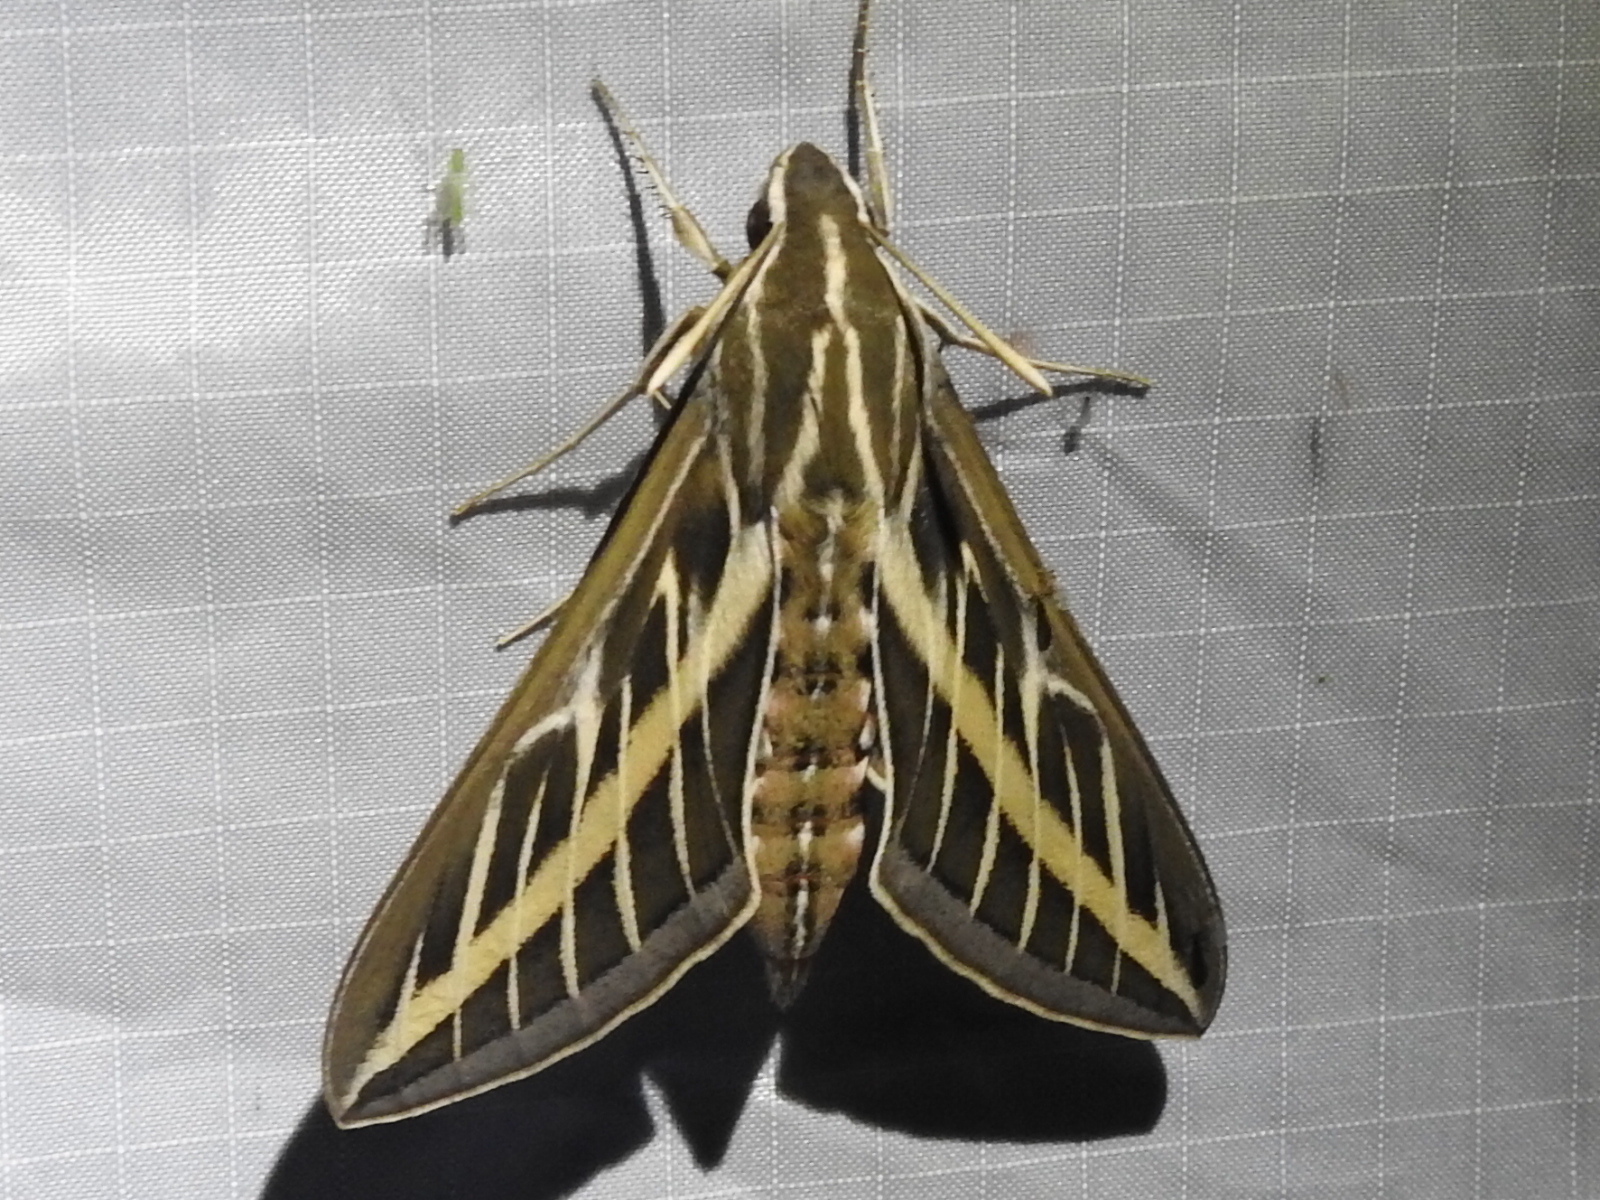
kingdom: Animalia
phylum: Arthropoda
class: Insecta
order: Lepidoptera
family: Sphingidae
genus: Hyles
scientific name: Hyles lineata
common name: White-lined sphinx
